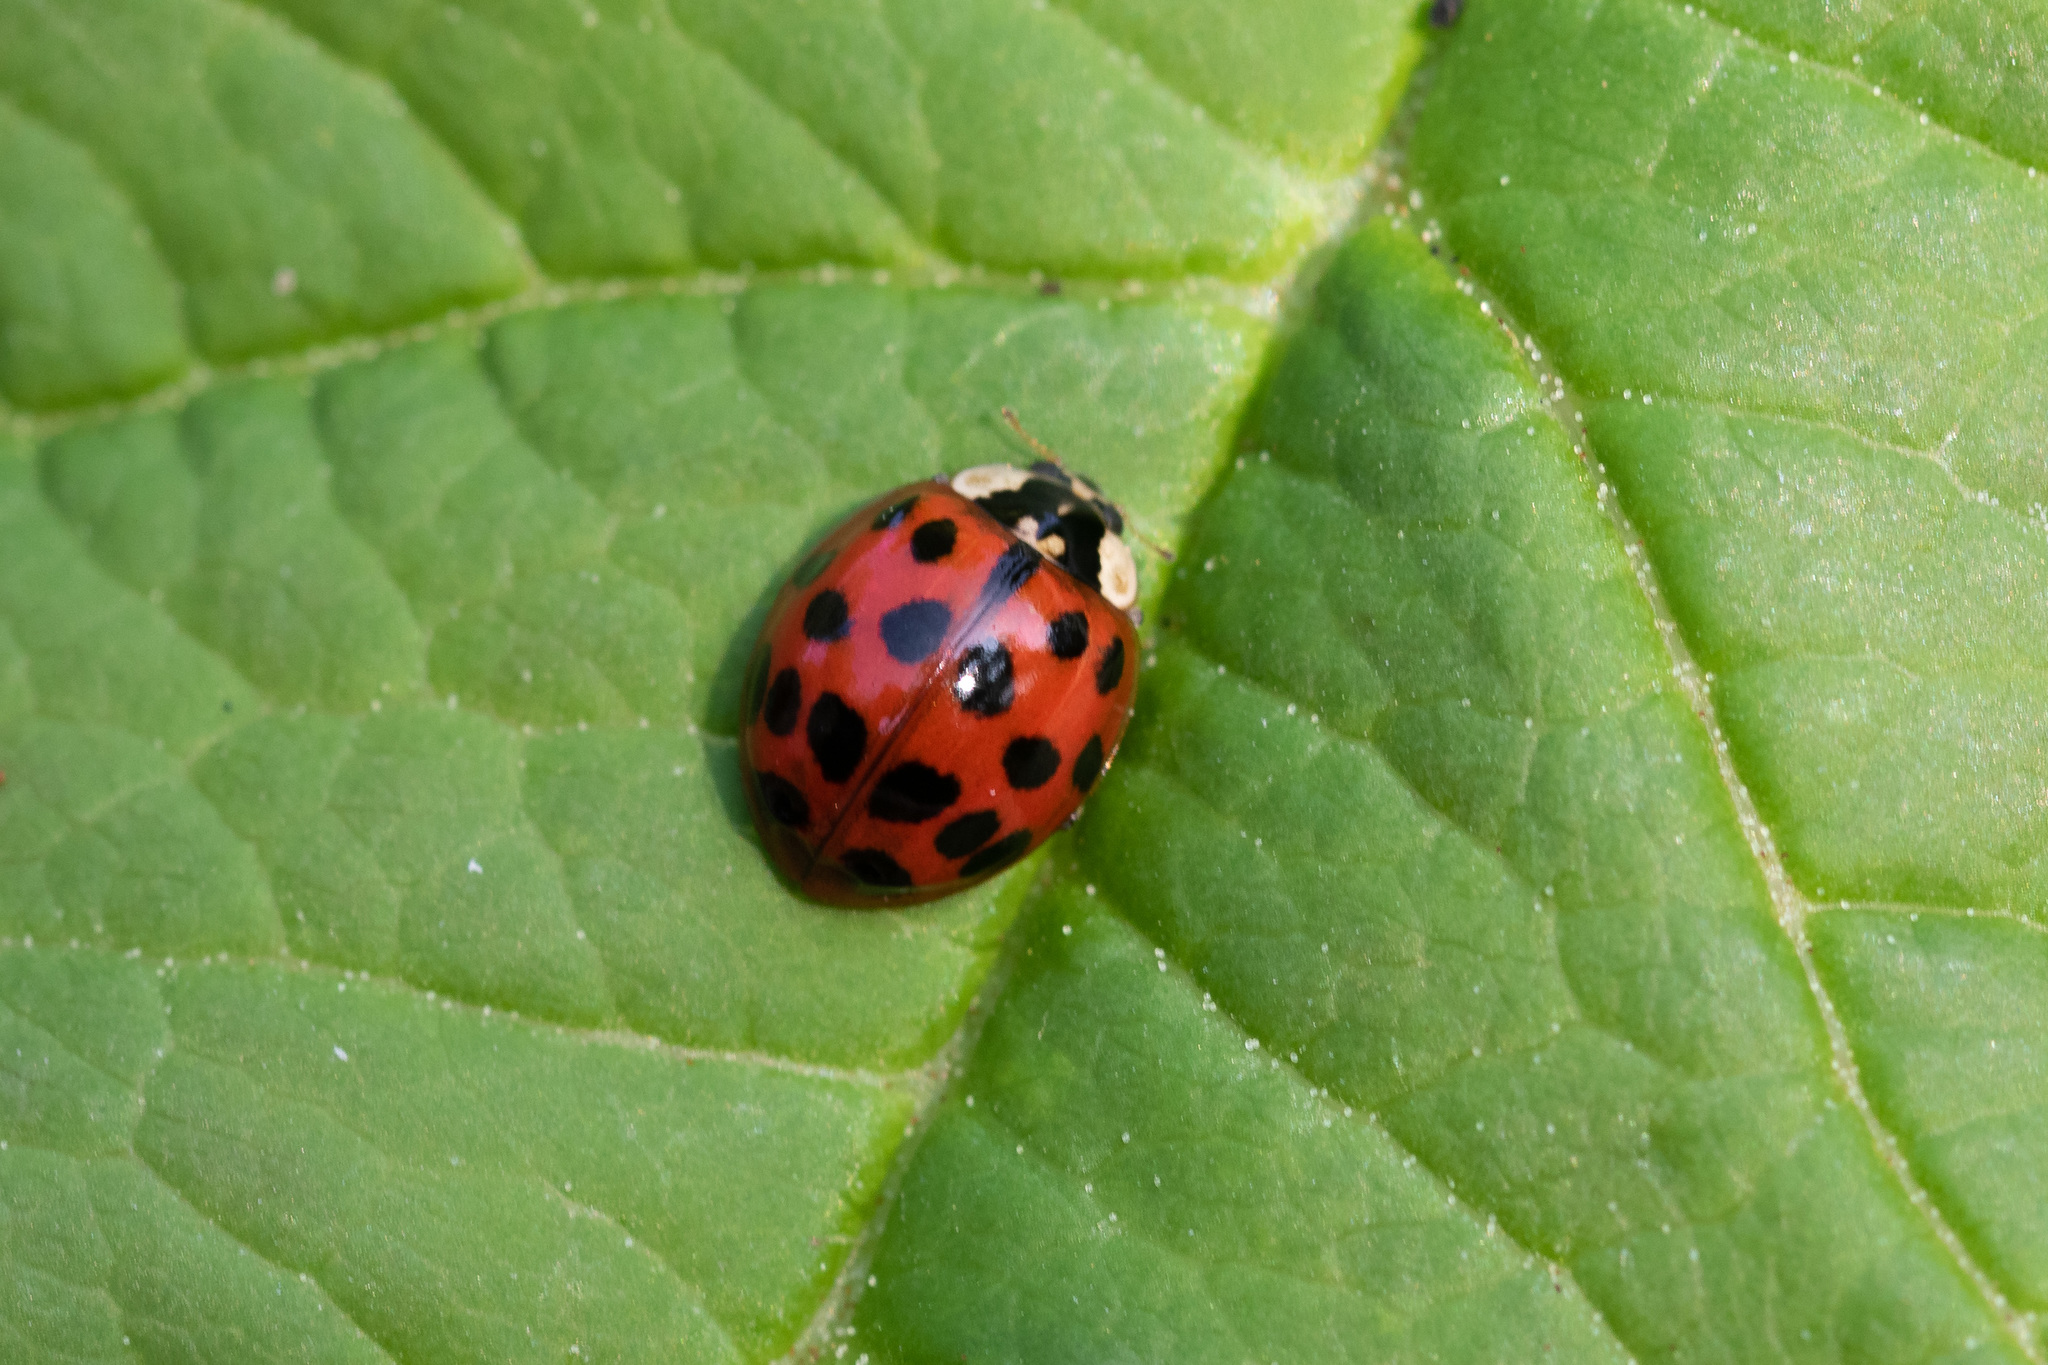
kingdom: Animalia
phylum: Arthropoda
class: Insecta
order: Coleoptera
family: Coccinellidae
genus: Harmonia
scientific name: Harmonia axyridis
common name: Harlequin ladybird
